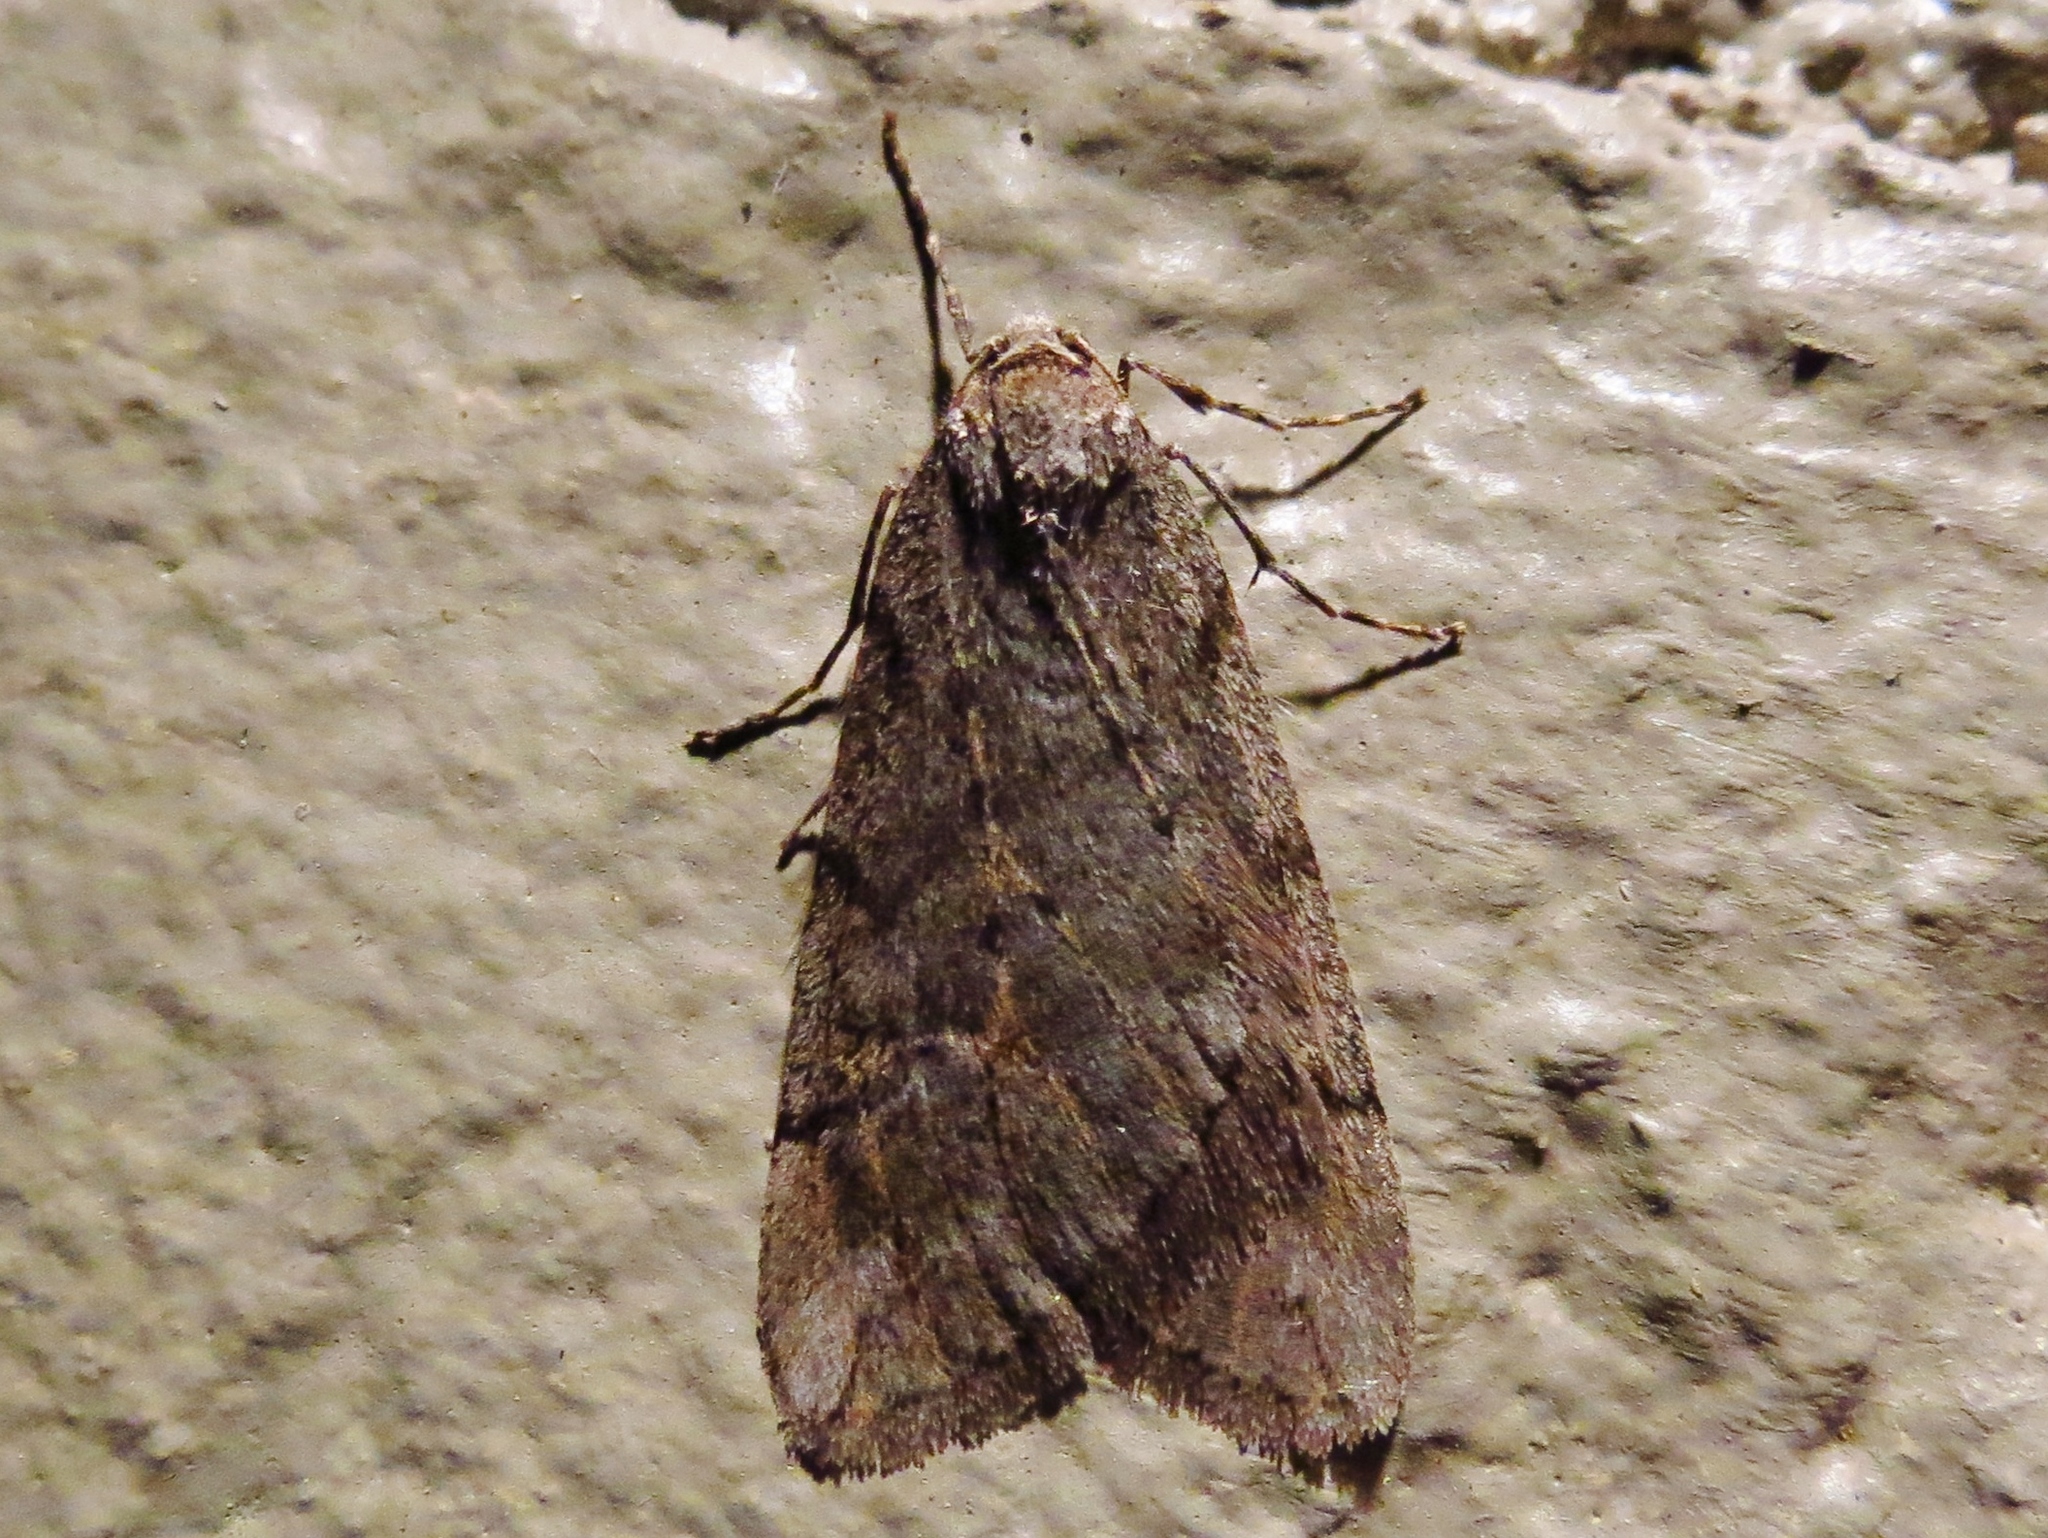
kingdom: Animalia
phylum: Arthropoda
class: Insecta
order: Lepidoptera
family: Geometridae
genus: Paleacrita
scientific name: Paleacrita vernata
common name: Spring cankerworm
